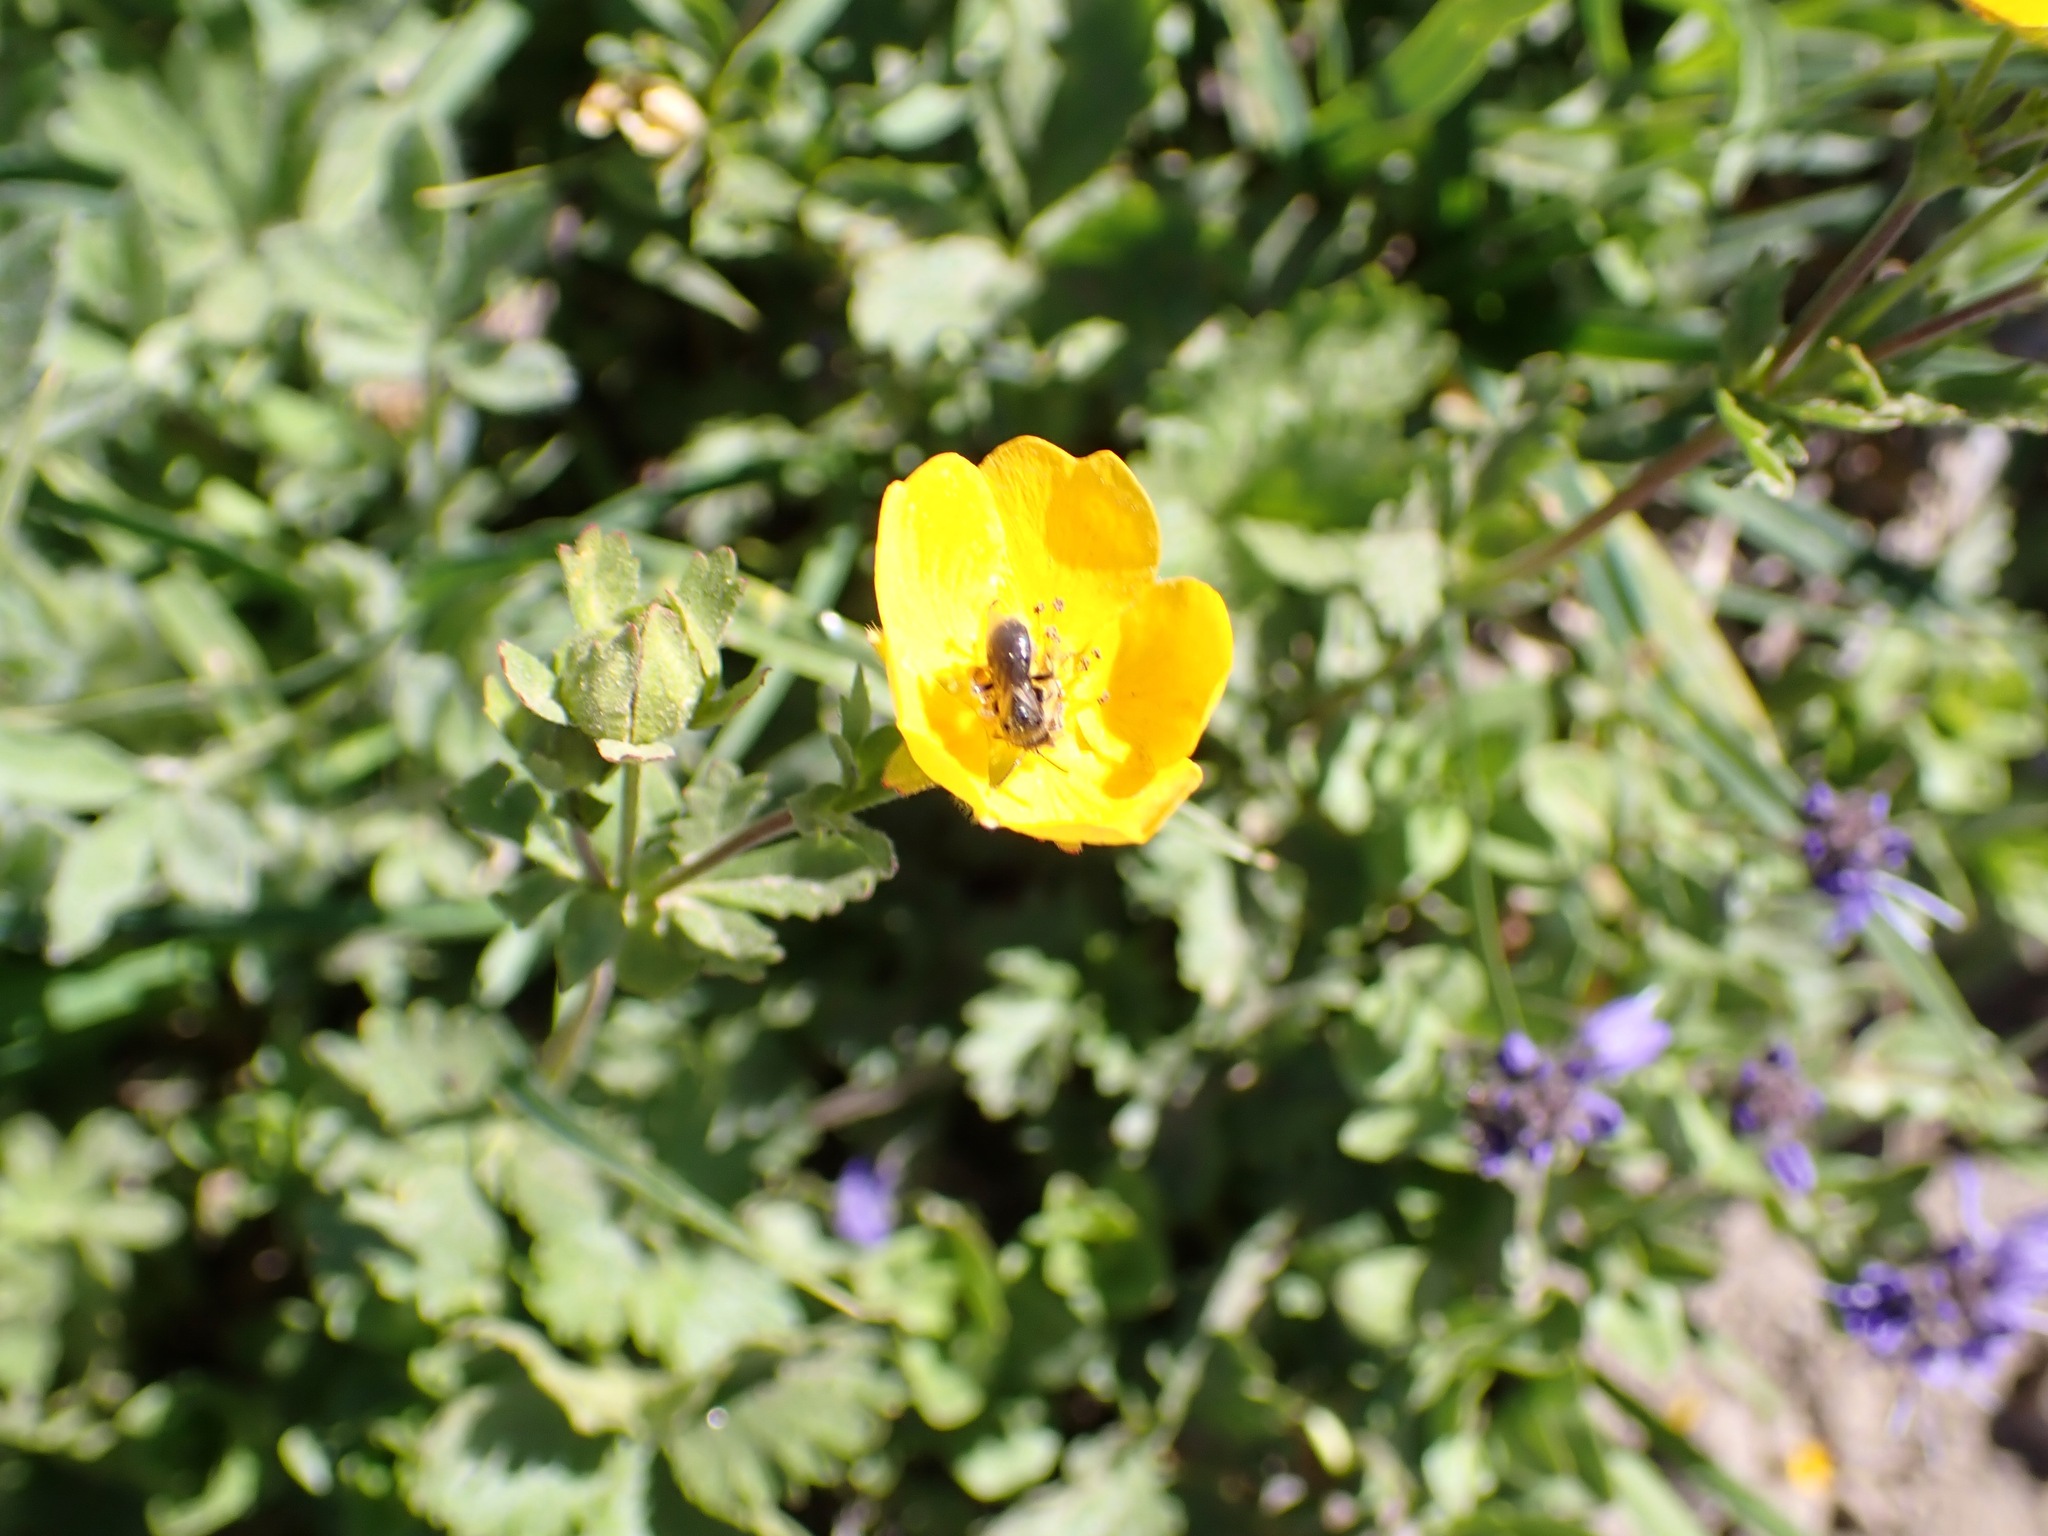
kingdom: Plantae
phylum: Tracheophyta
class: Magnoliopsida
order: Rosales
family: Rosaceae
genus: Potentilla
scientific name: Potentilla flabellifolia
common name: Mount rainier cinquefoil
